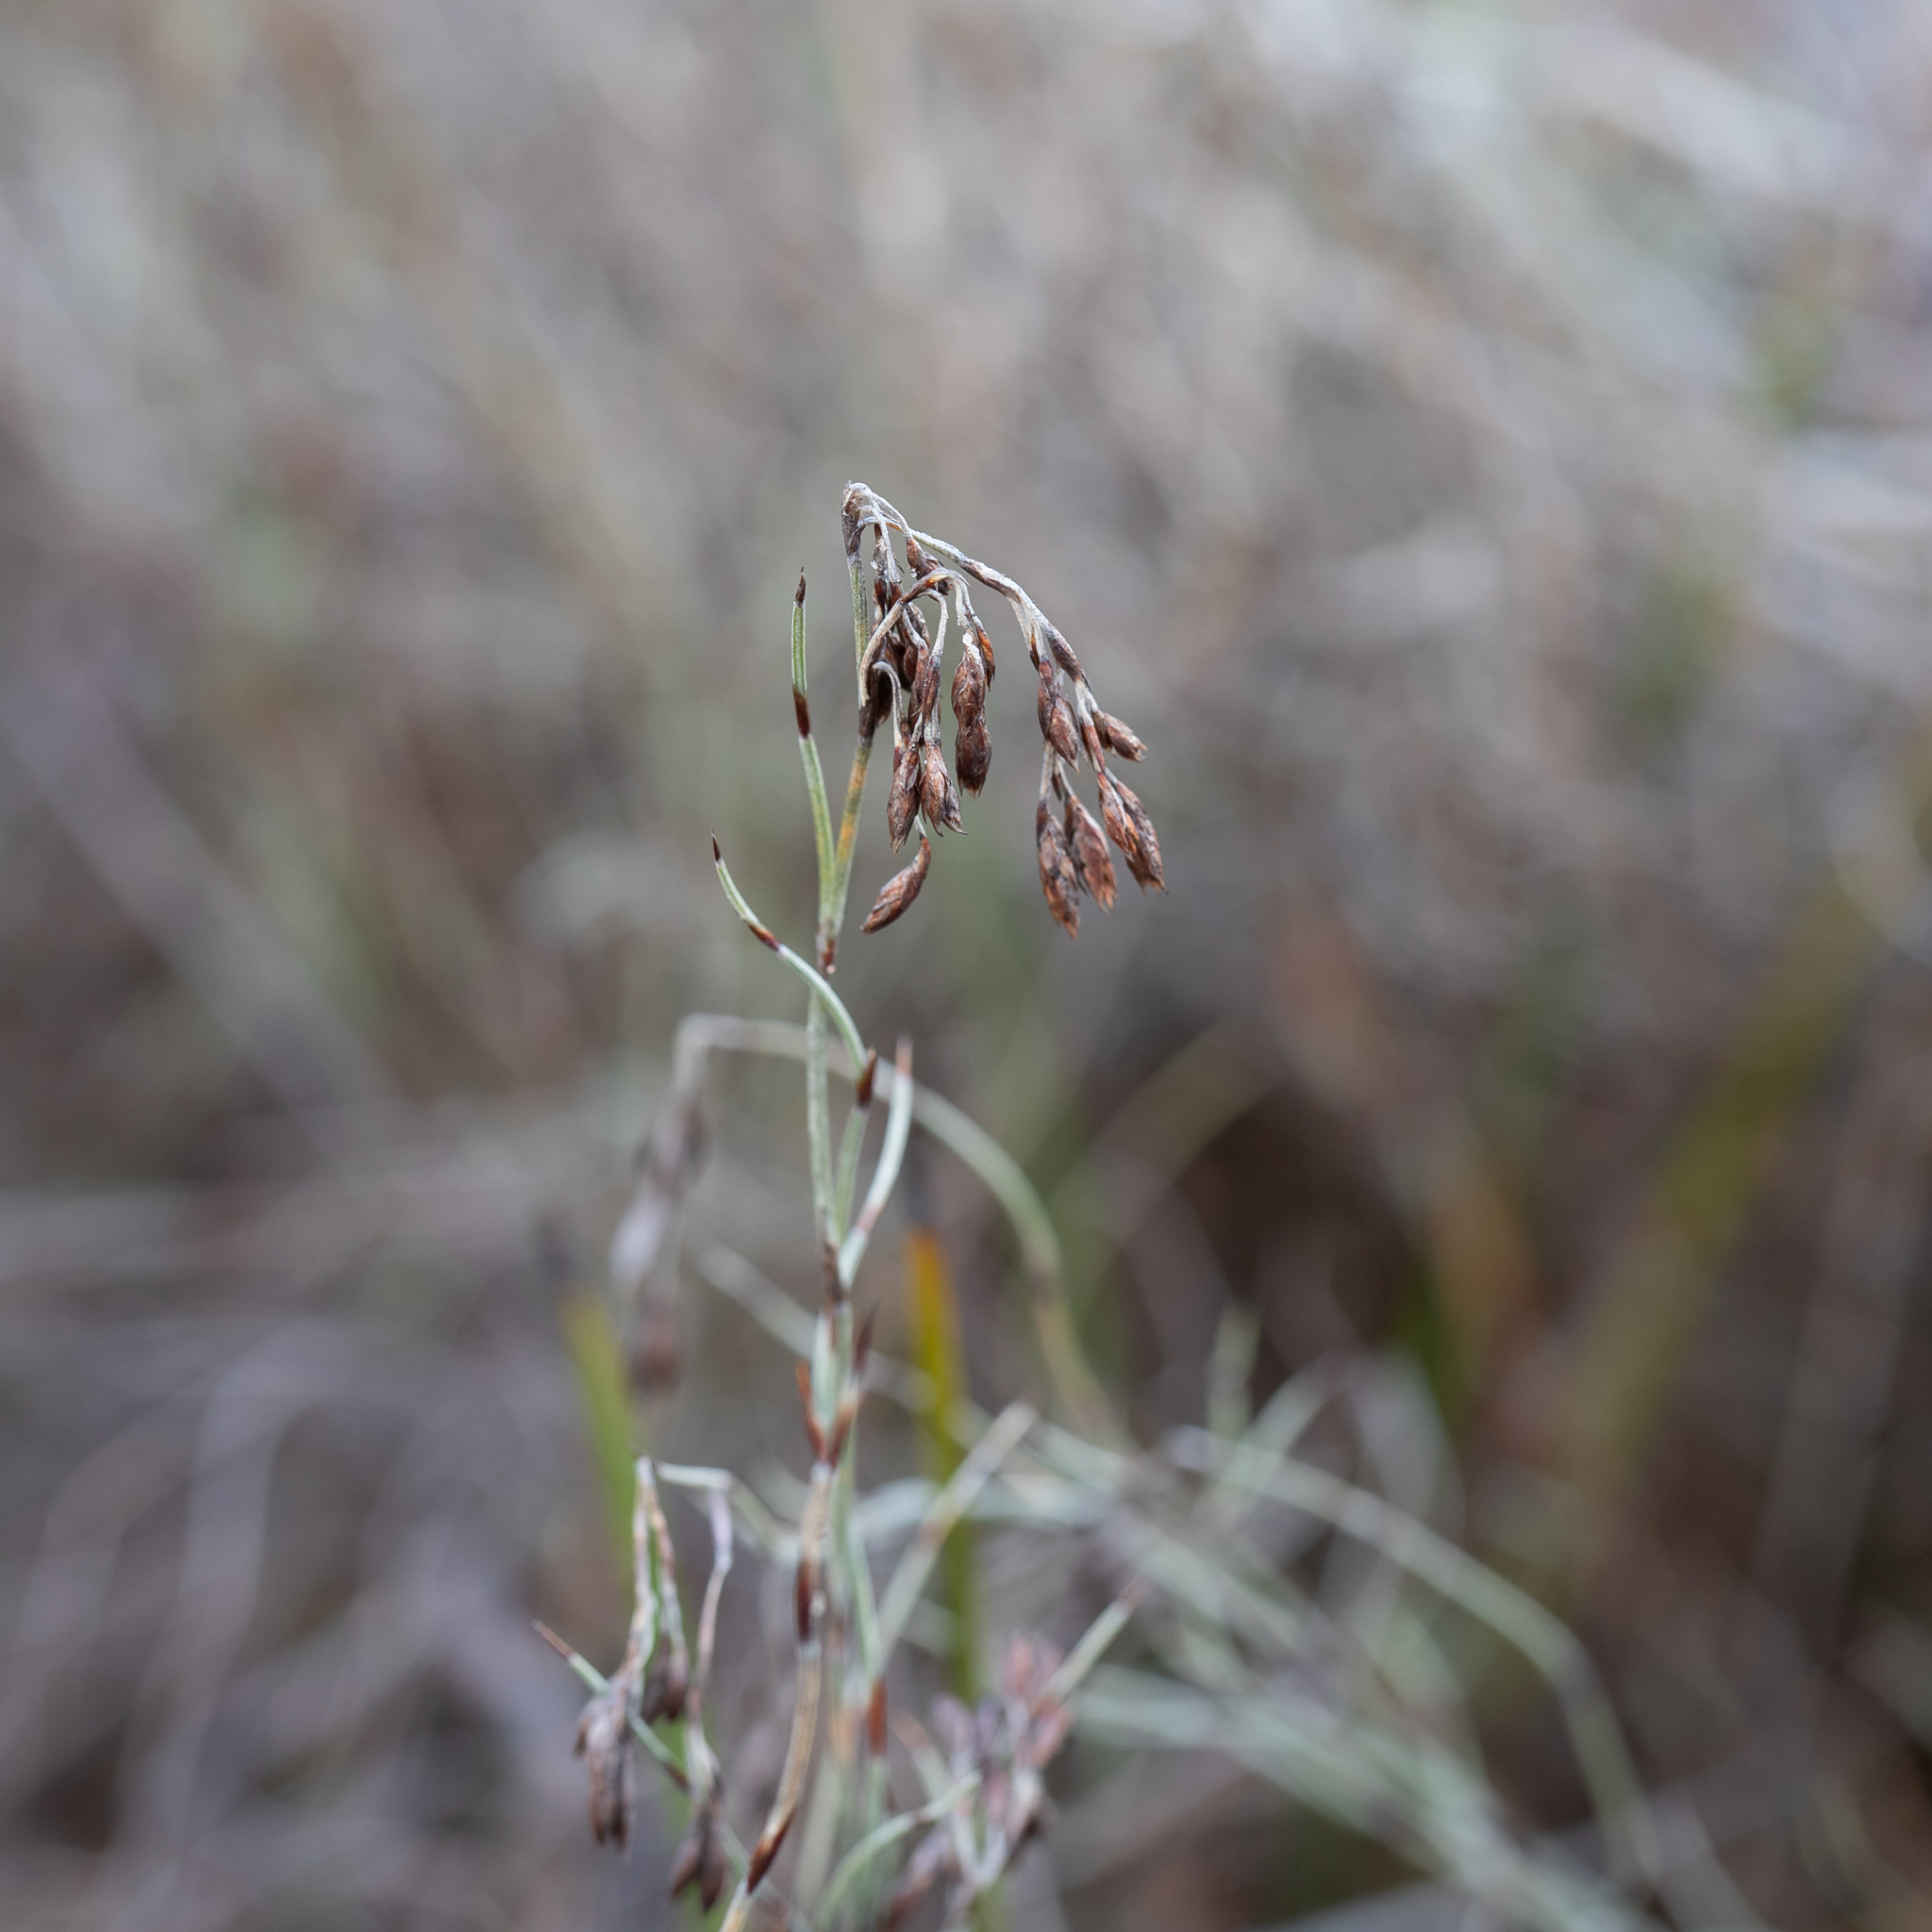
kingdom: Plantae
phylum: Tracheophyta
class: Liliopsida
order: Poales
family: Restionaceae
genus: Hypolaena
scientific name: Hypolaena fastigiata
